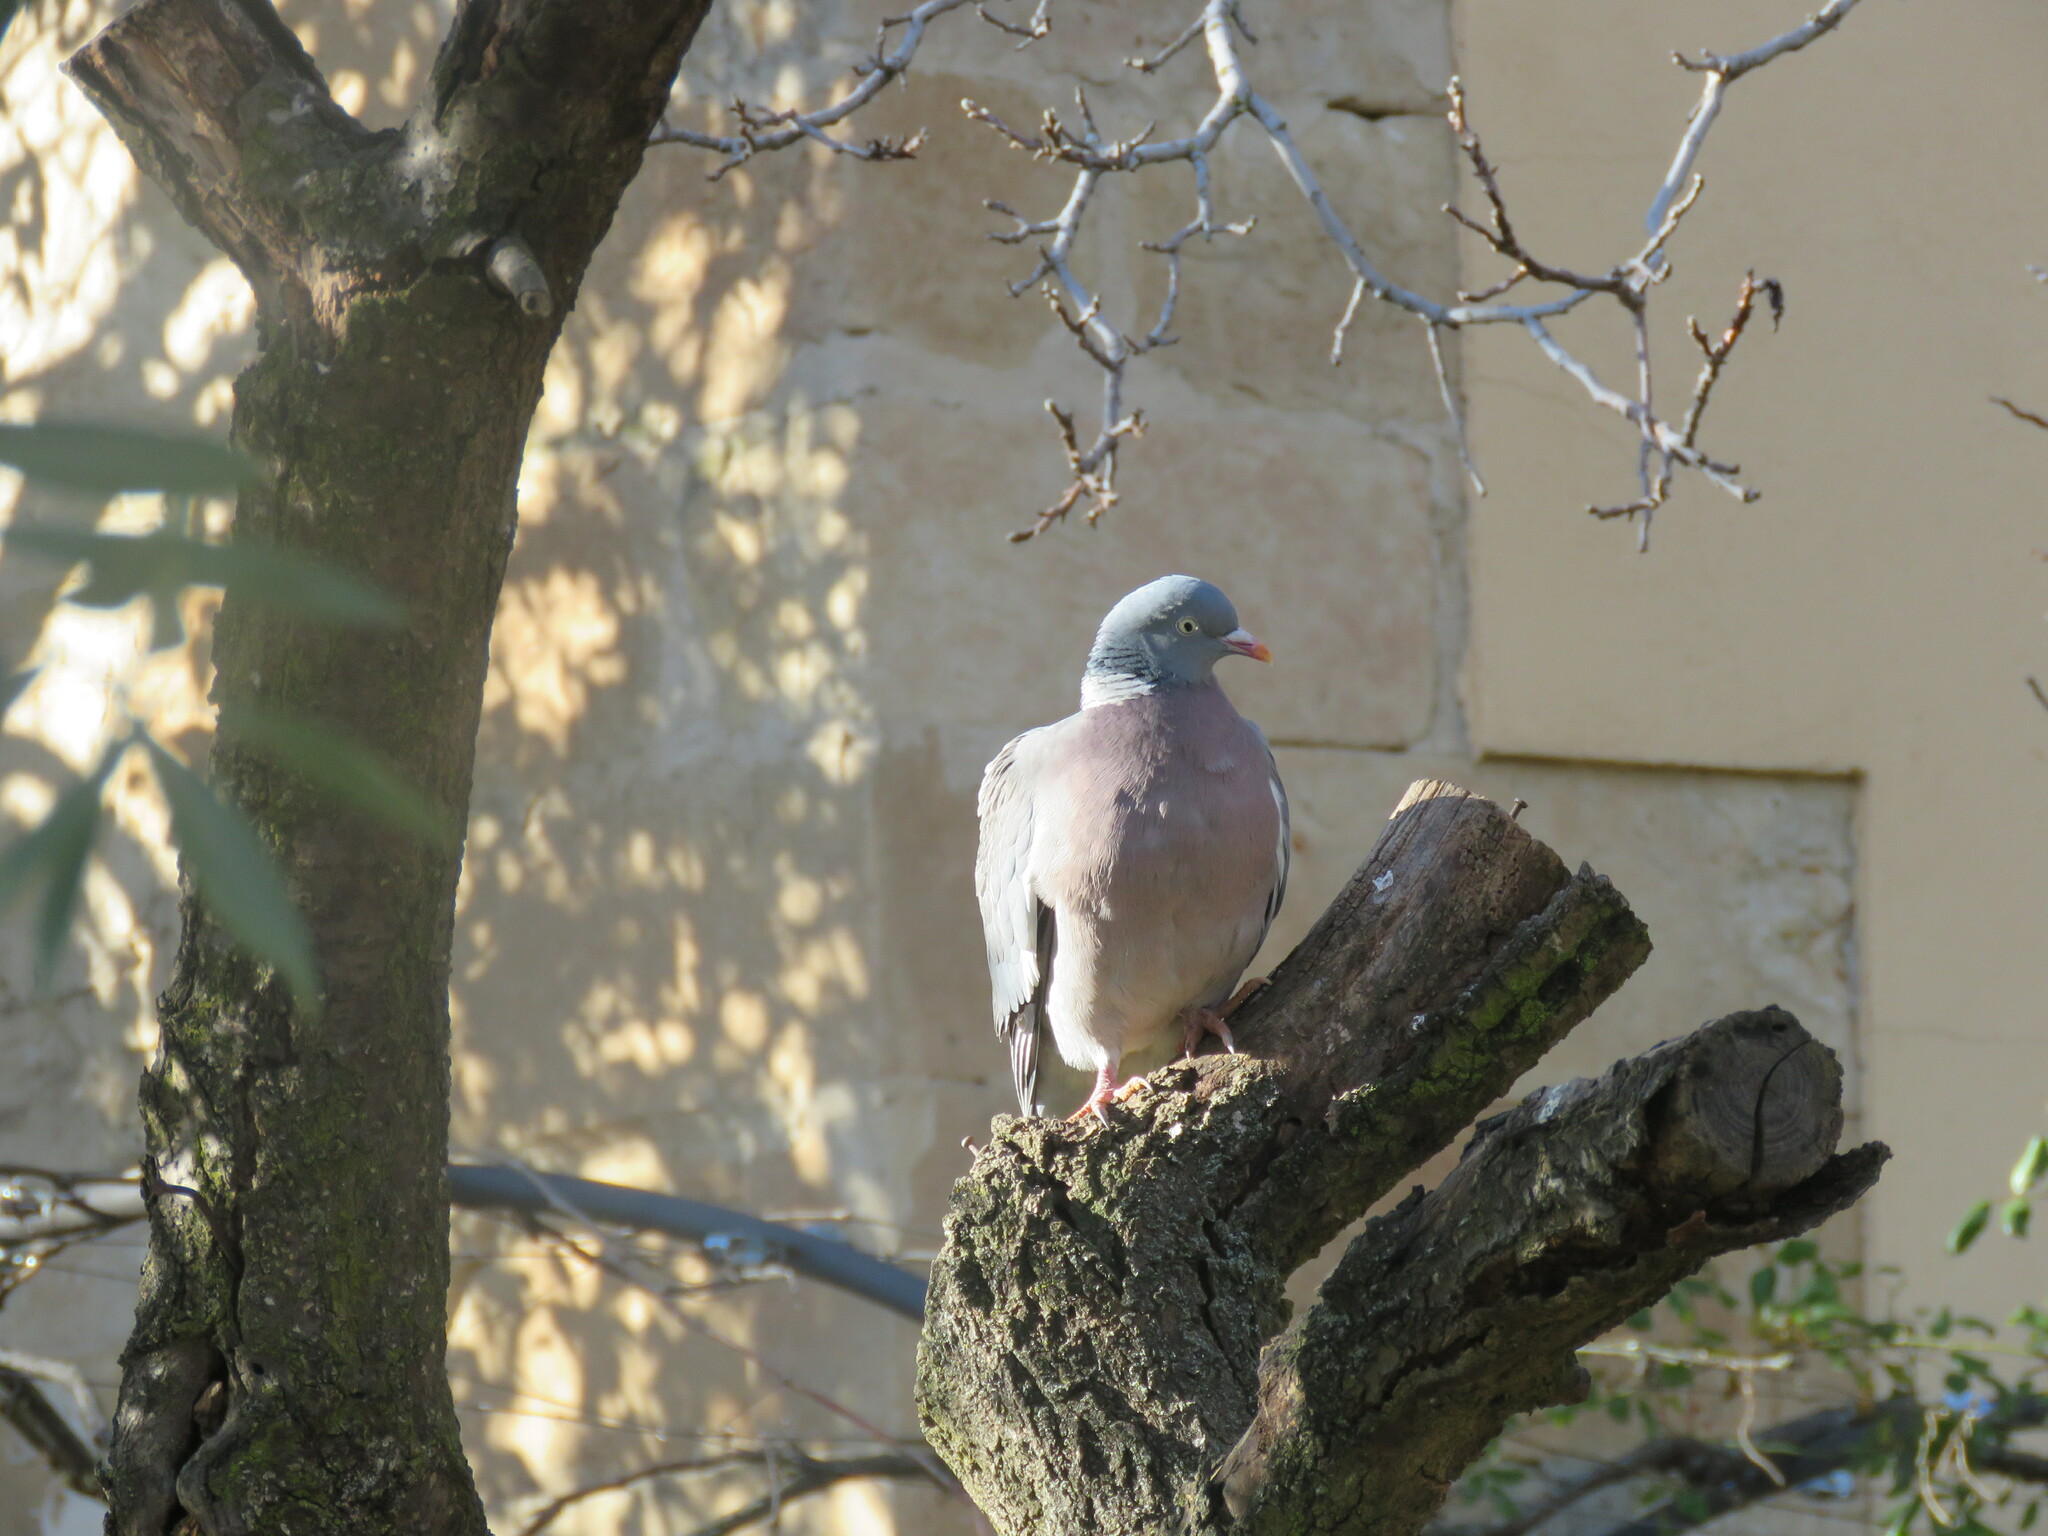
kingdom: Animalia
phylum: Chordata
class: Aves
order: Columbiformes
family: Columbidae
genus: Columba
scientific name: Columba palumbus
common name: Common wood pigeon
